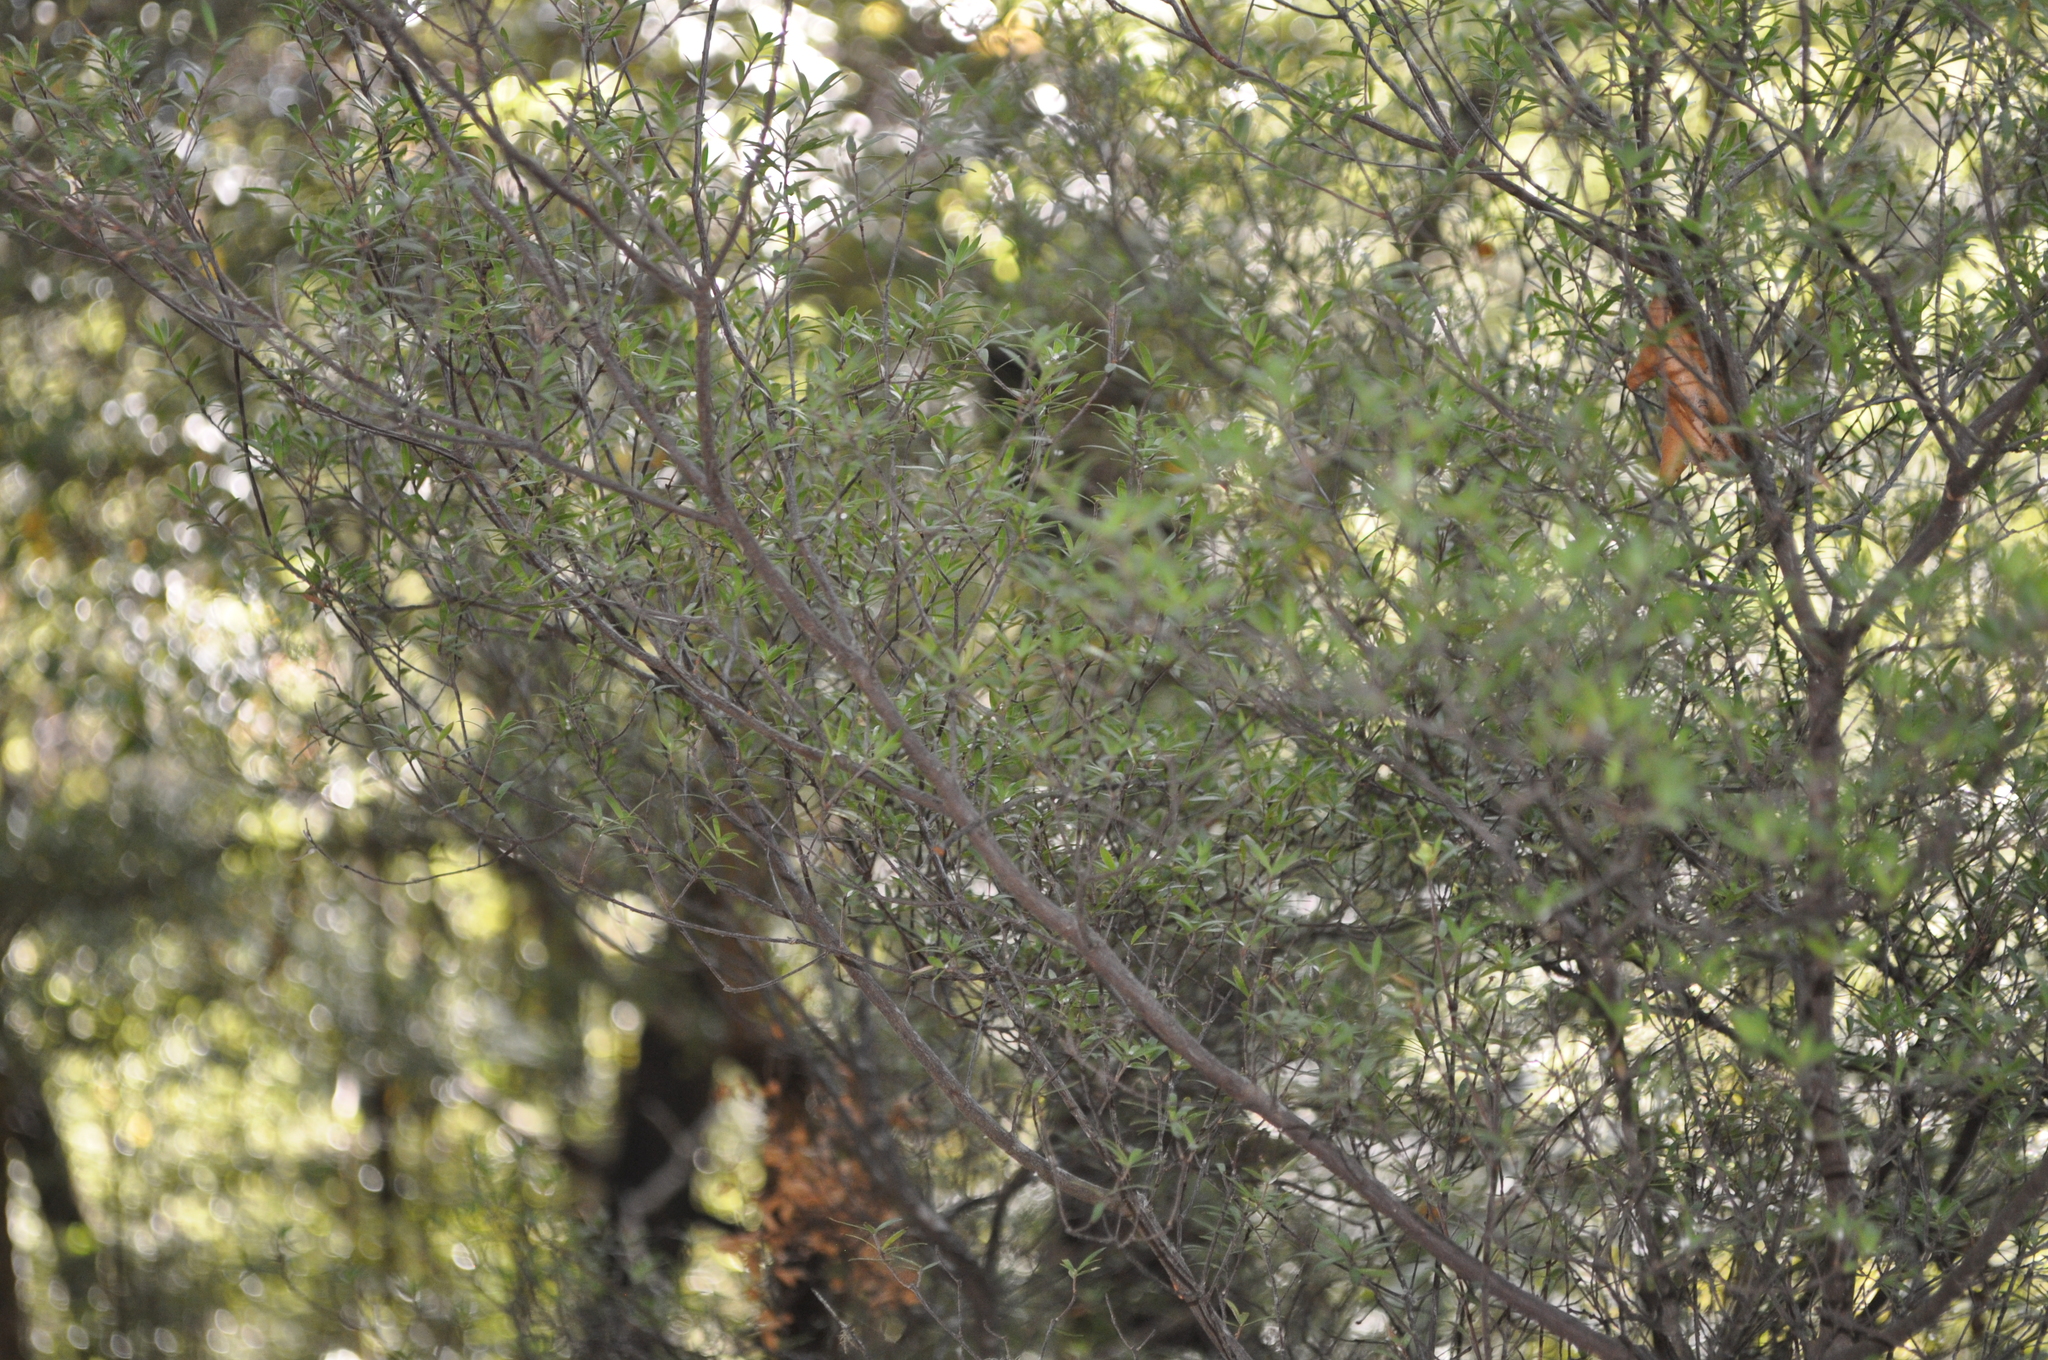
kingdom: Plantae
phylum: Tracheophyta
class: Magnoliopsida
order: Ericales
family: Ericaceae
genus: Leucopogon
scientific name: Leucopogon fasciculatus
